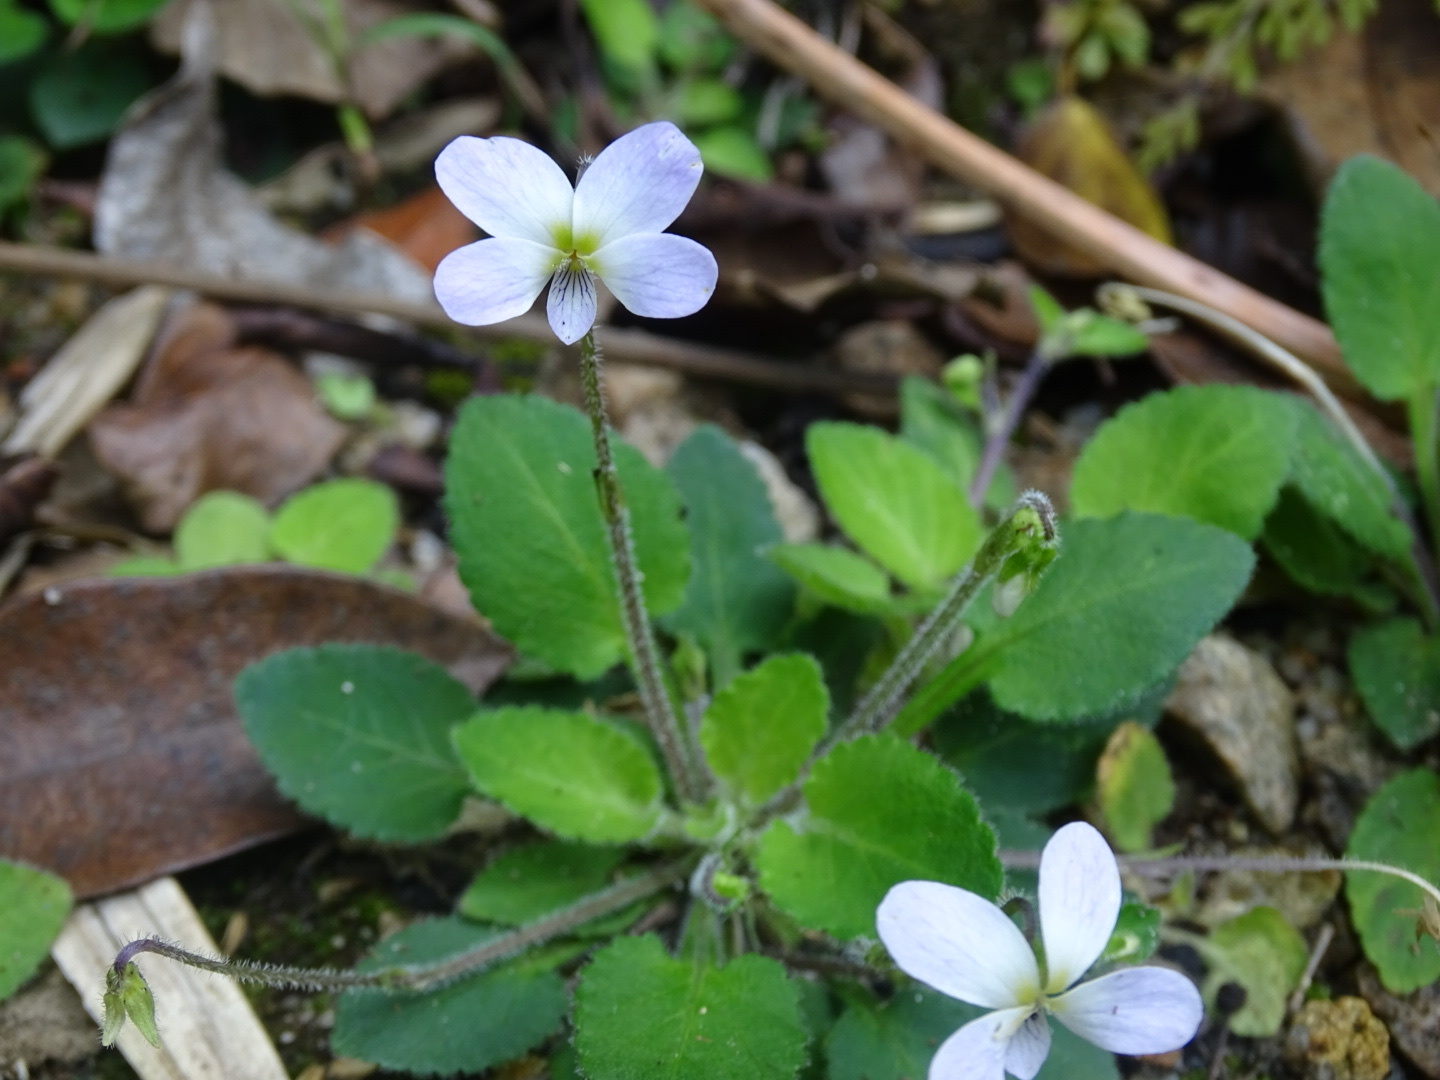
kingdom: Plantae
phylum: Tracheophyta
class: Magnoliopsida
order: Malpighiales
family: Violaceae
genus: Viola
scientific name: Viola diffusa
